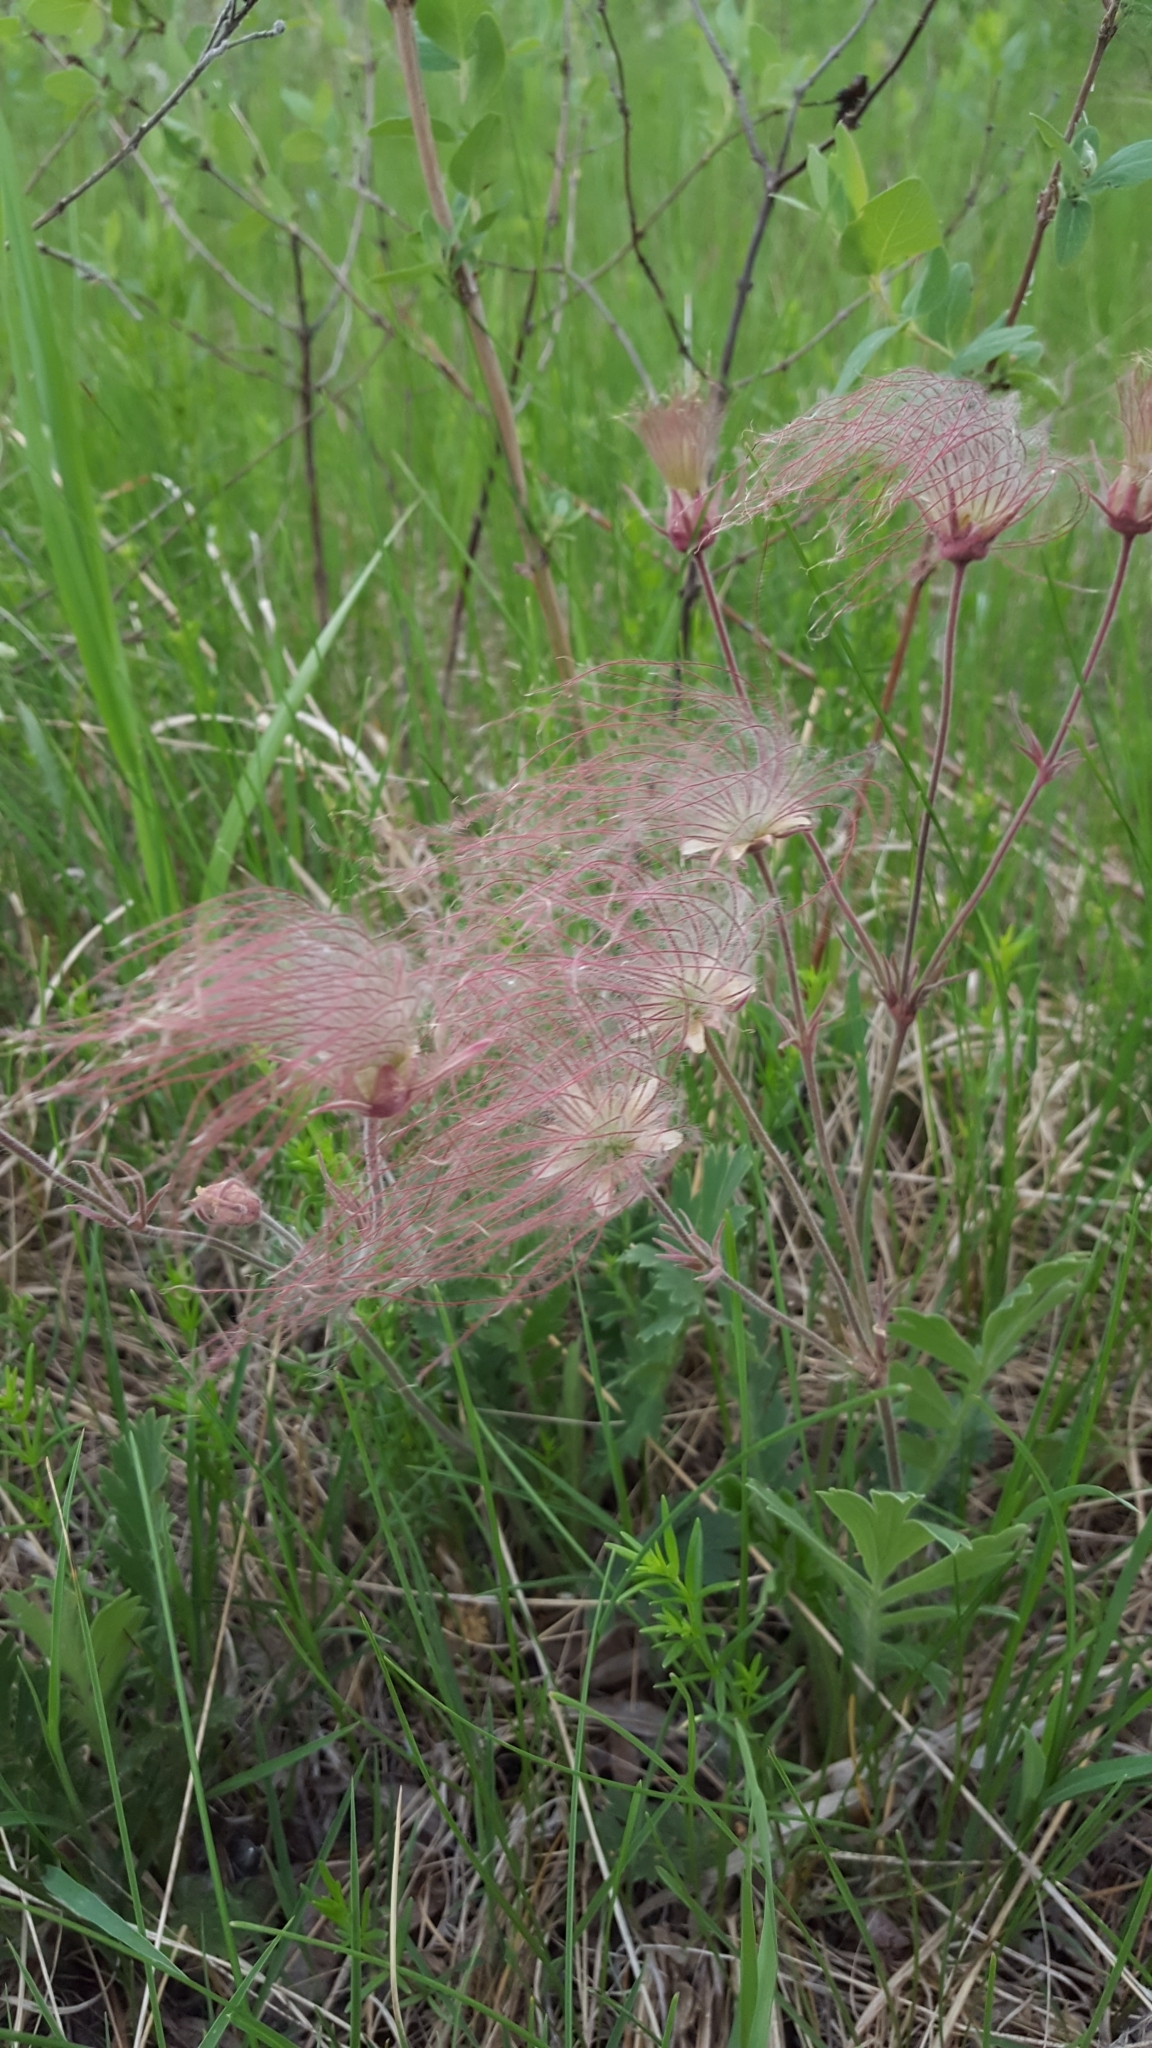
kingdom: Plantae
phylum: Tracheophyta
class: Magnoliopsida
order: Rosales
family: Rosaceae
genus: Geum
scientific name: Geum triflorum
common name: Old man's whiskers
